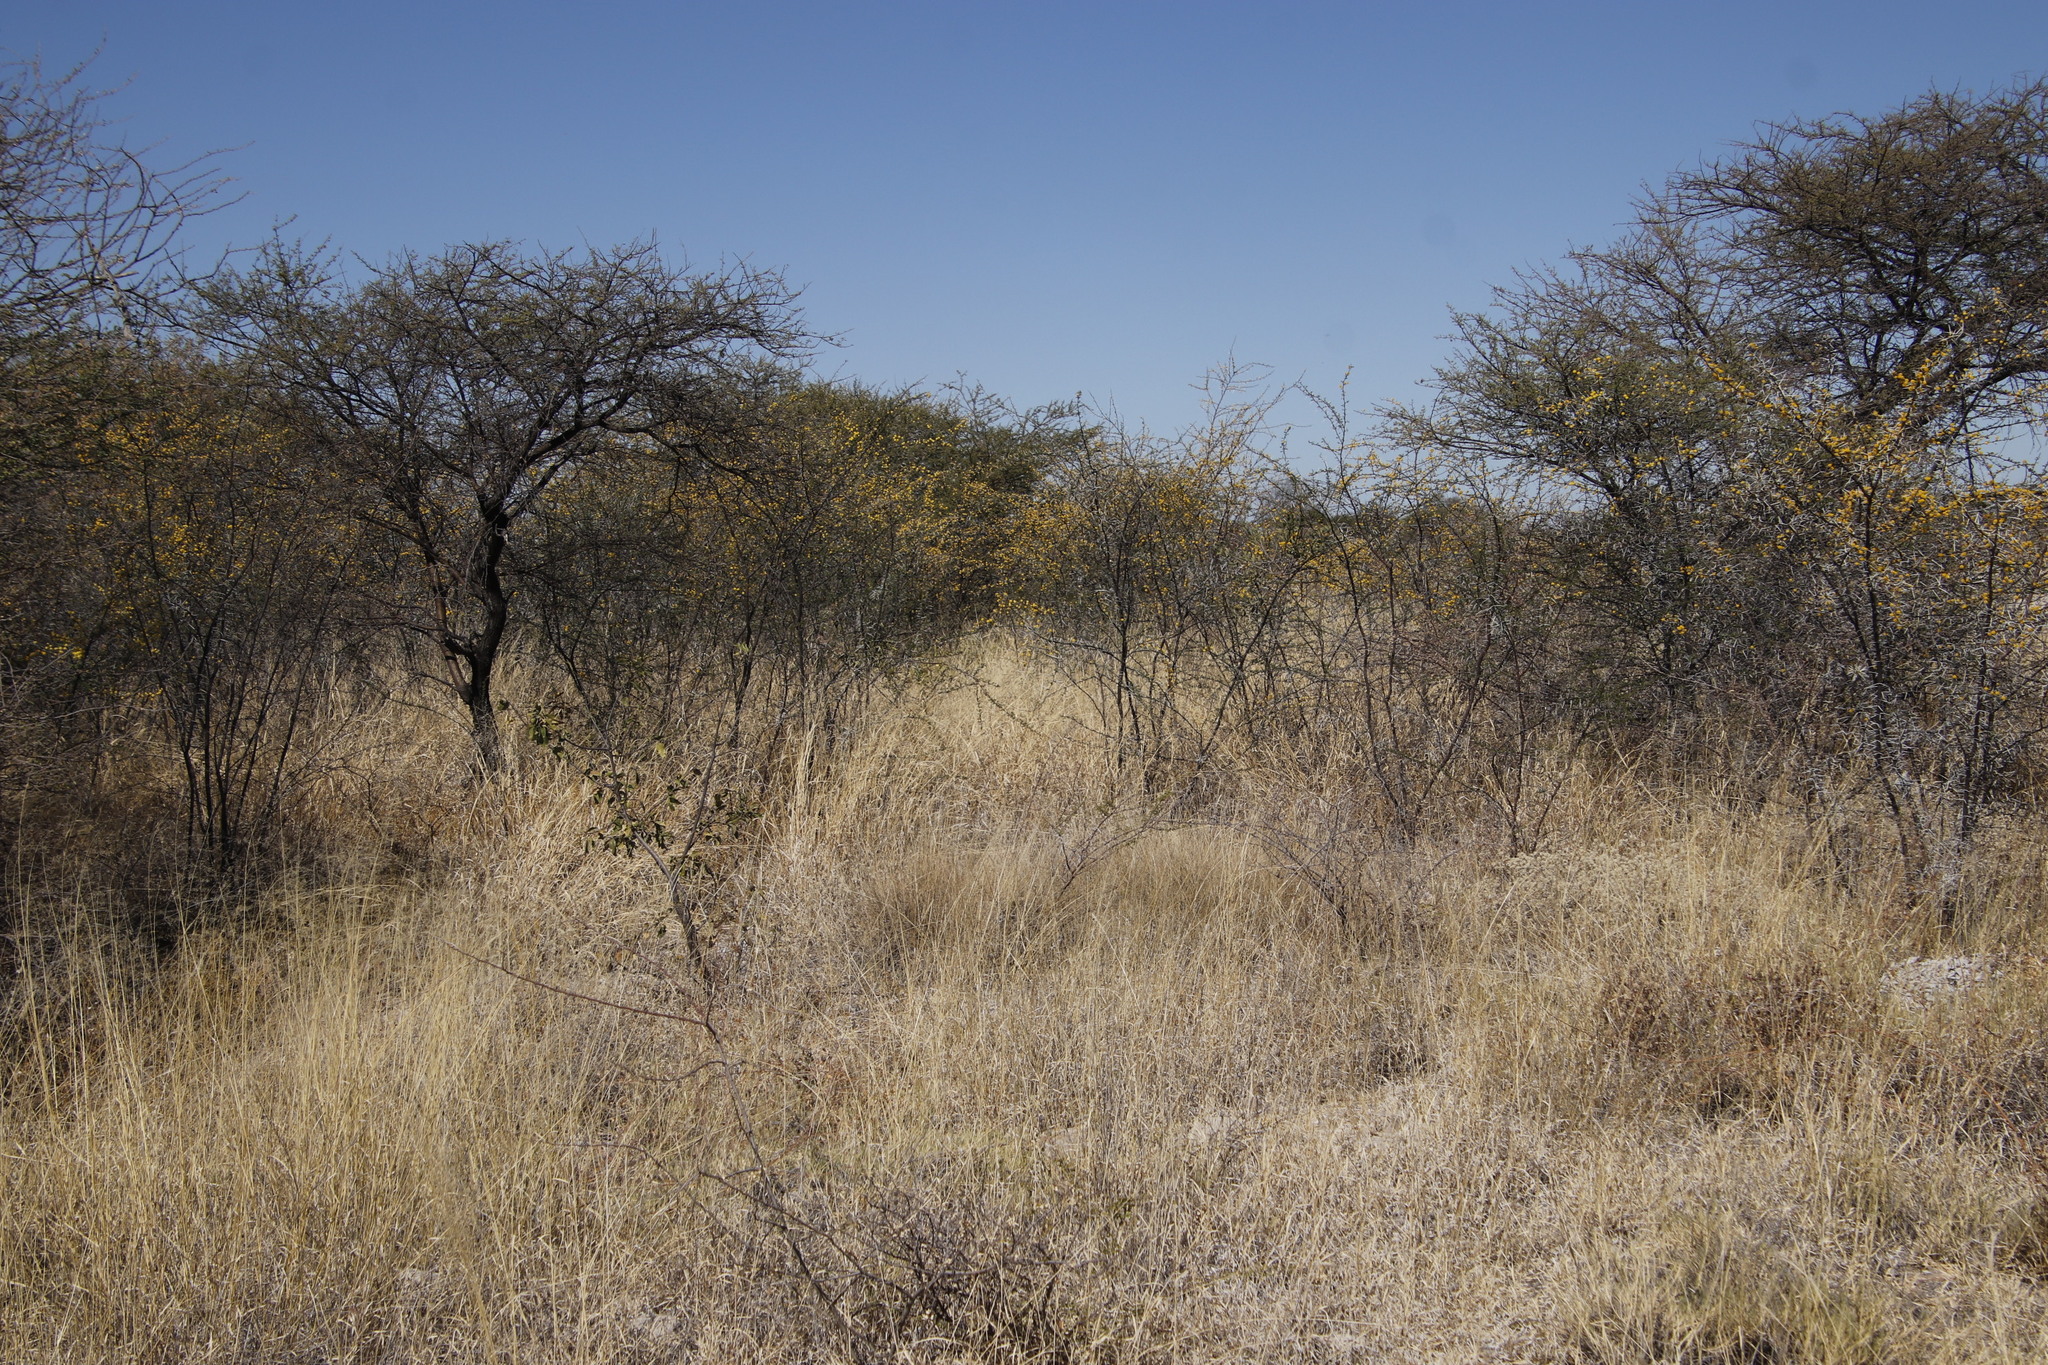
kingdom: Plantae
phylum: Tracheophyta
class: Magnoliopsida
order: Fabales
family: Fabaceae
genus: Vachellia
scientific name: Vachellia nebrownii
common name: Water acacia
